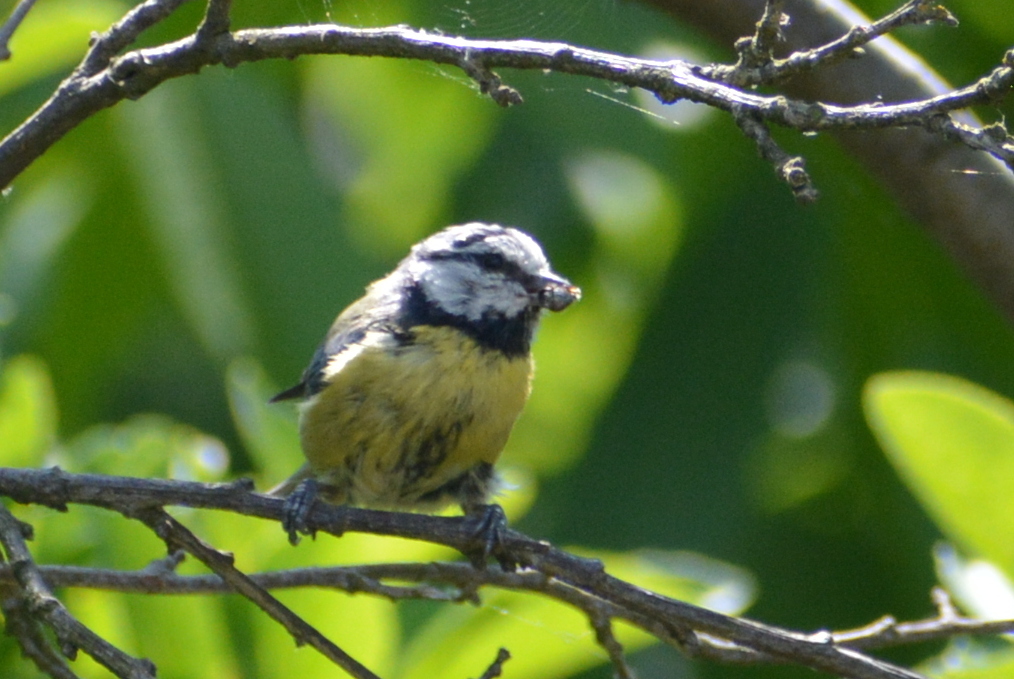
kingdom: Animalia
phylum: Chordata
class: Aves
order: Passeriformes
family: Paridae
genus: Cyanistes
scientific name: Cyanistes caeruleus
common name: Eurasian blue tit
